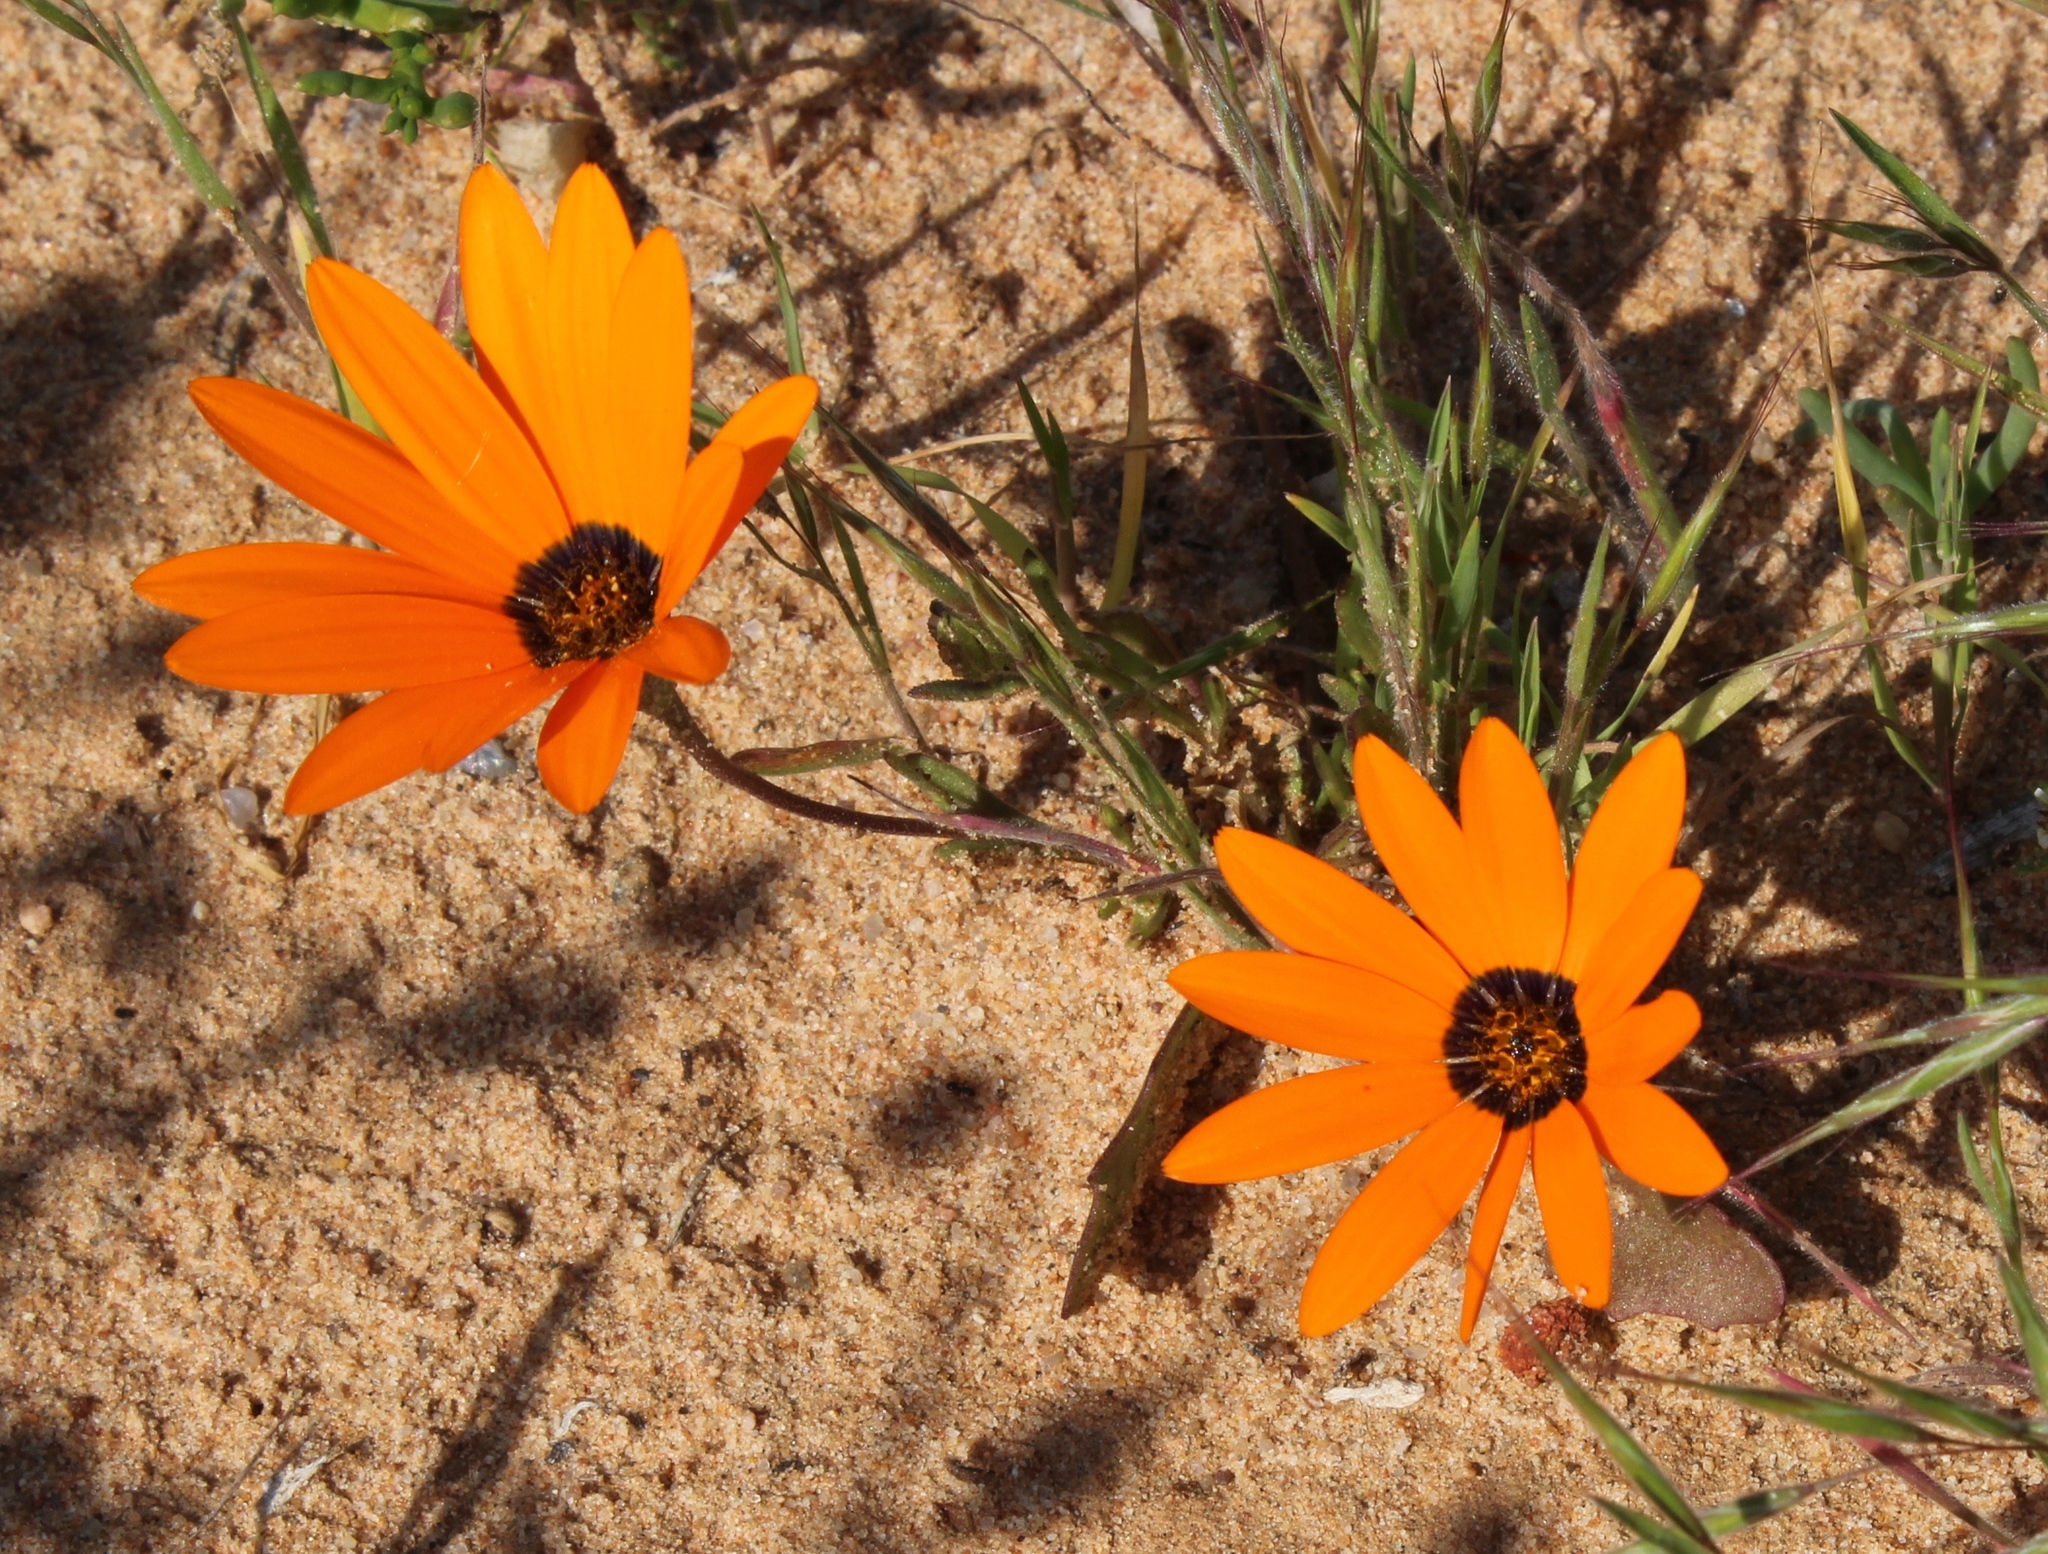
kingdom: Plantae
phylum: Tracheophyta
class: Magnoliopsida
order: Asterales
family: Asteraceae
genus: Dimorphotheca
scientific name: Dimorphotheca sinuata
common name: Glandular cape marigold
